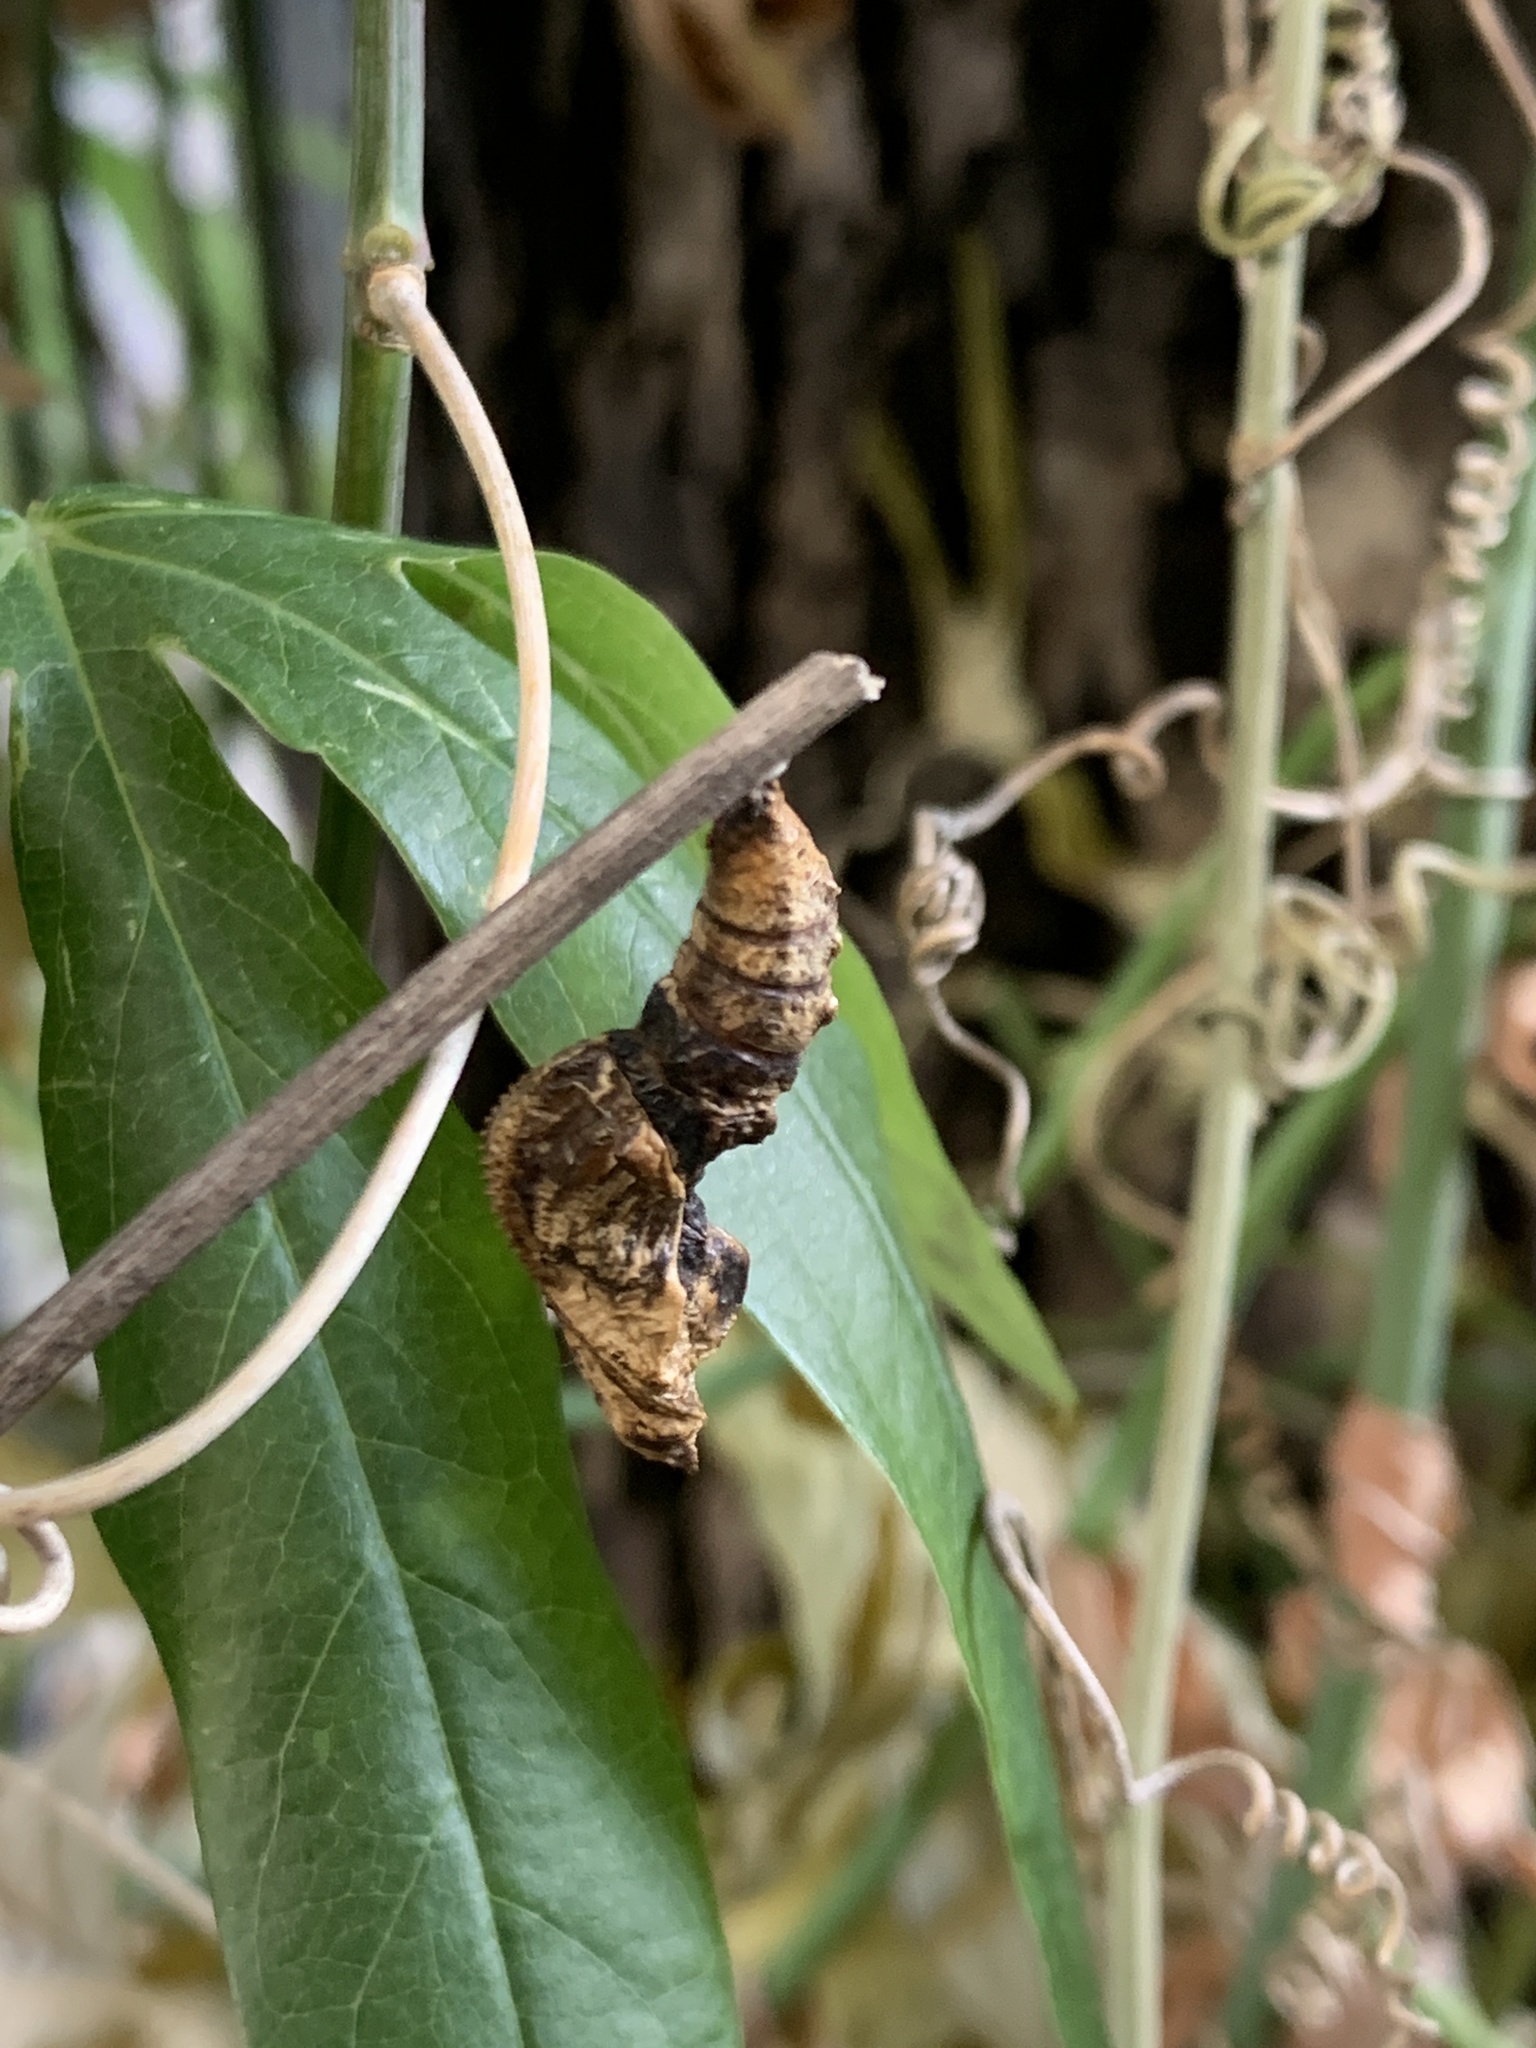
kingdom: Animalia
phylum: Arthropoda
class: Insecta
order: Lepidoptera
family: Nymphalidae
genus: Dione
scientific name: Dione vanillae
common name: Gulf fritillary
